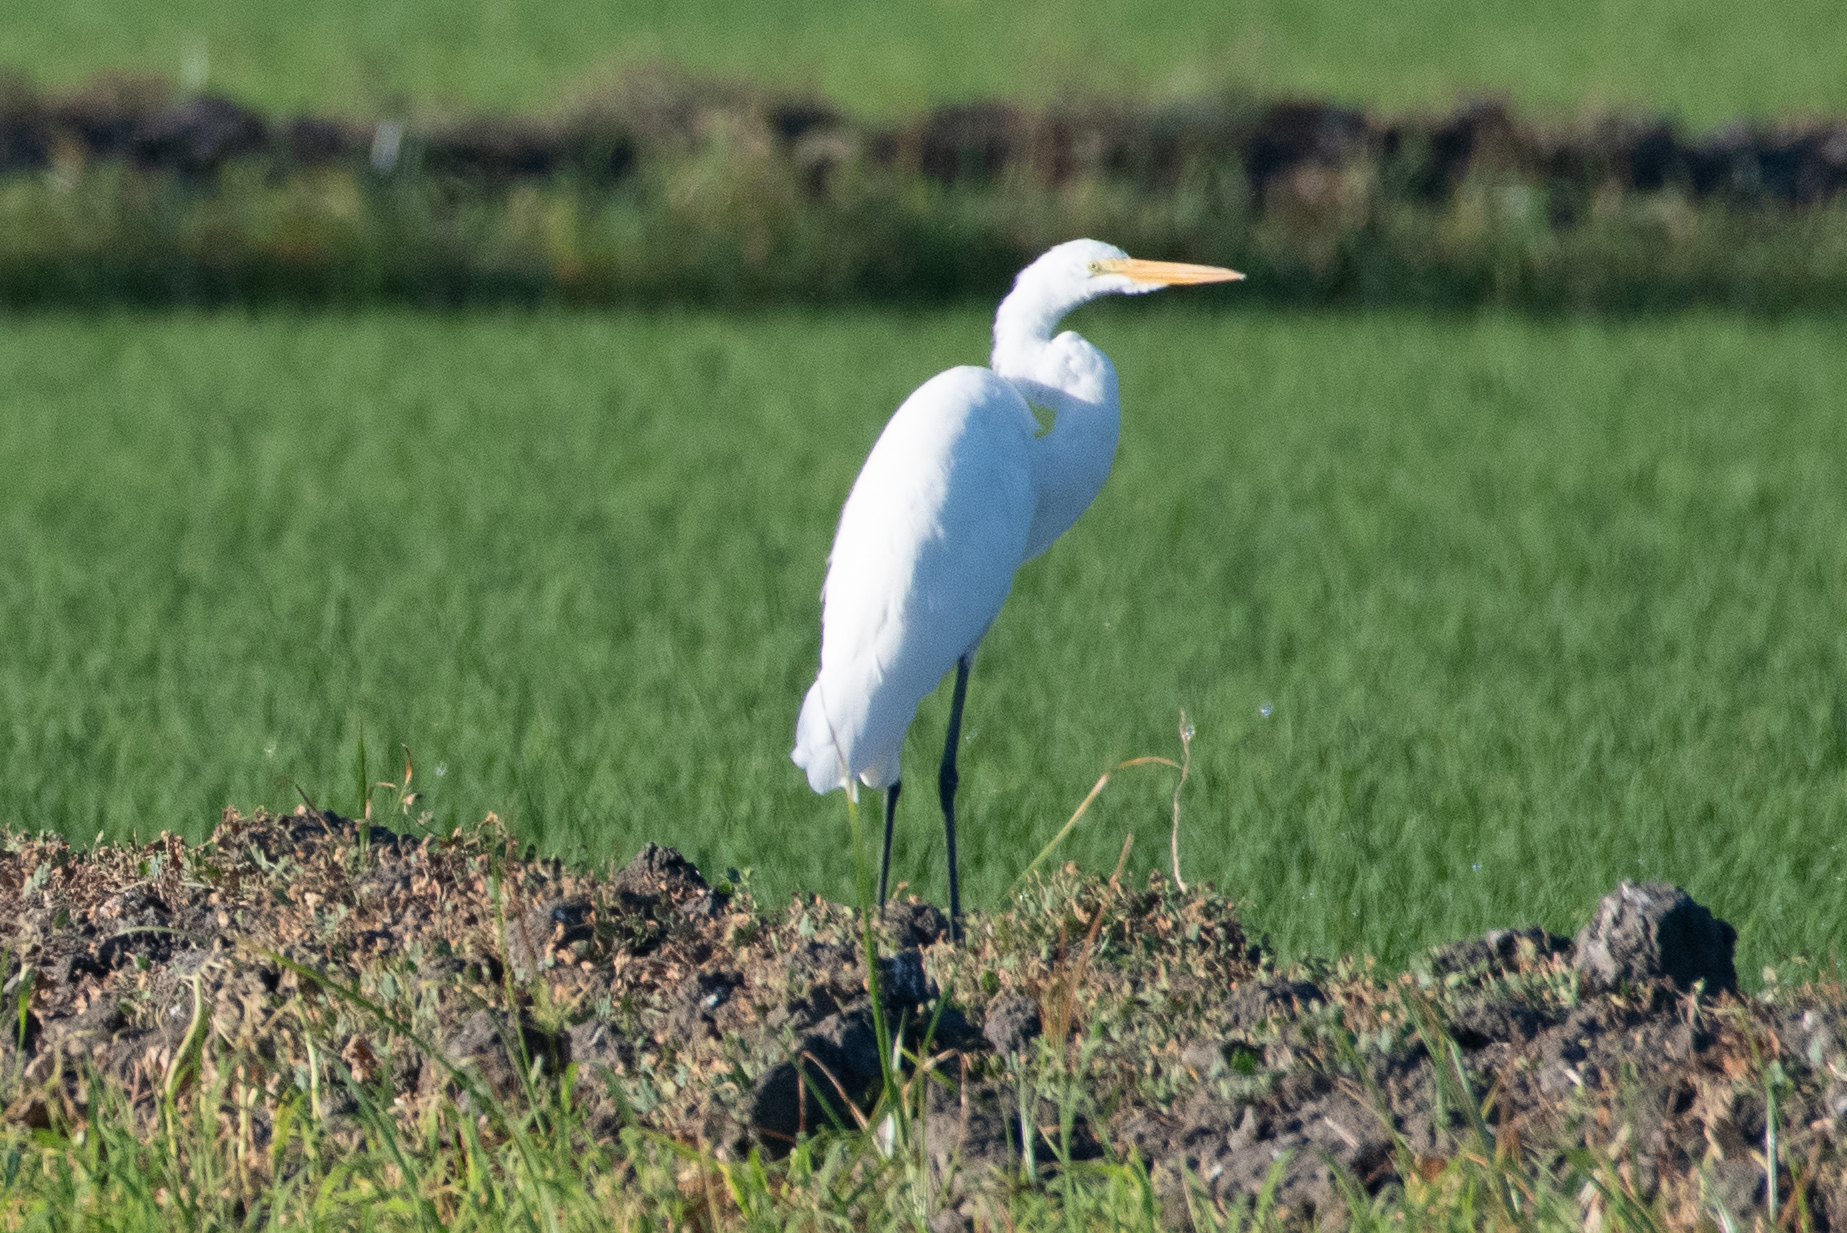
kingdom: Animalia
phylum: Chordata
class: Aves
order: Pelecaniformes
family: Ardeidae
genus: Ardea
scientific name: Ardea alba
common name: Great egret
